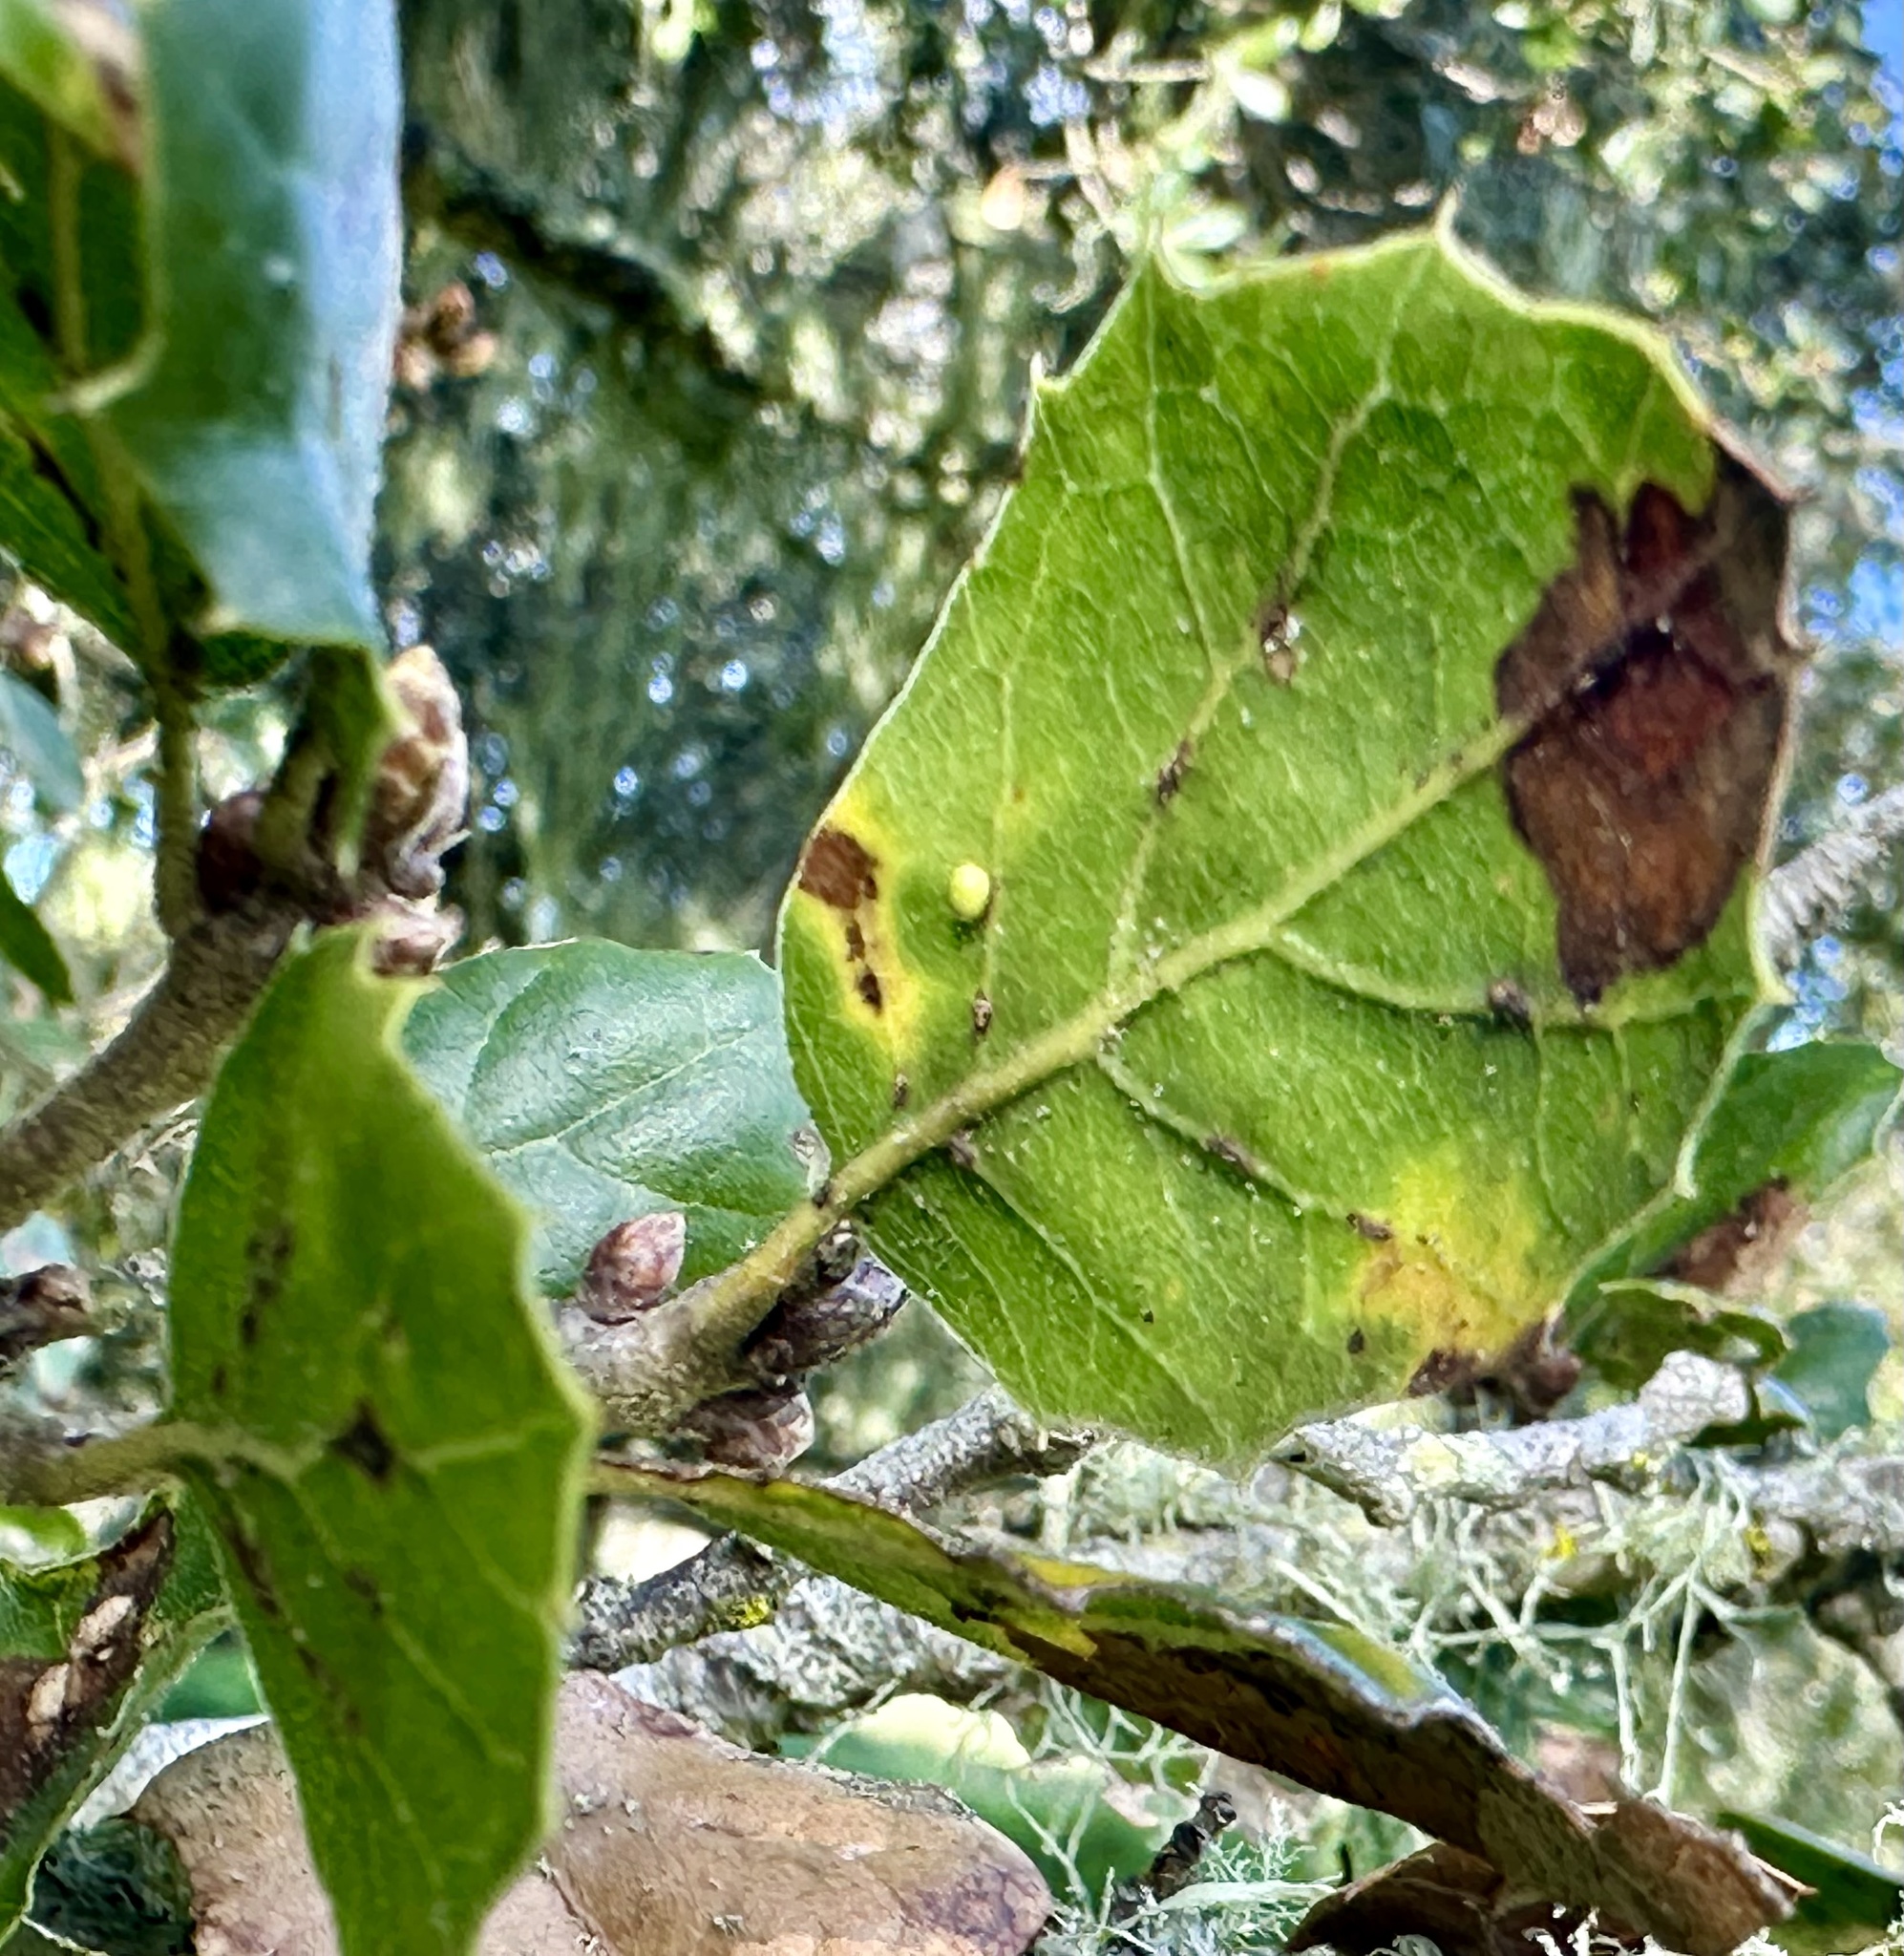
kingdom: Animalia
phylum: Arthropoda
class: Insecta
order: Hymenoptera
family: Cynipidae
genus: Dryocosmus
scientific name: Dryocosmus
